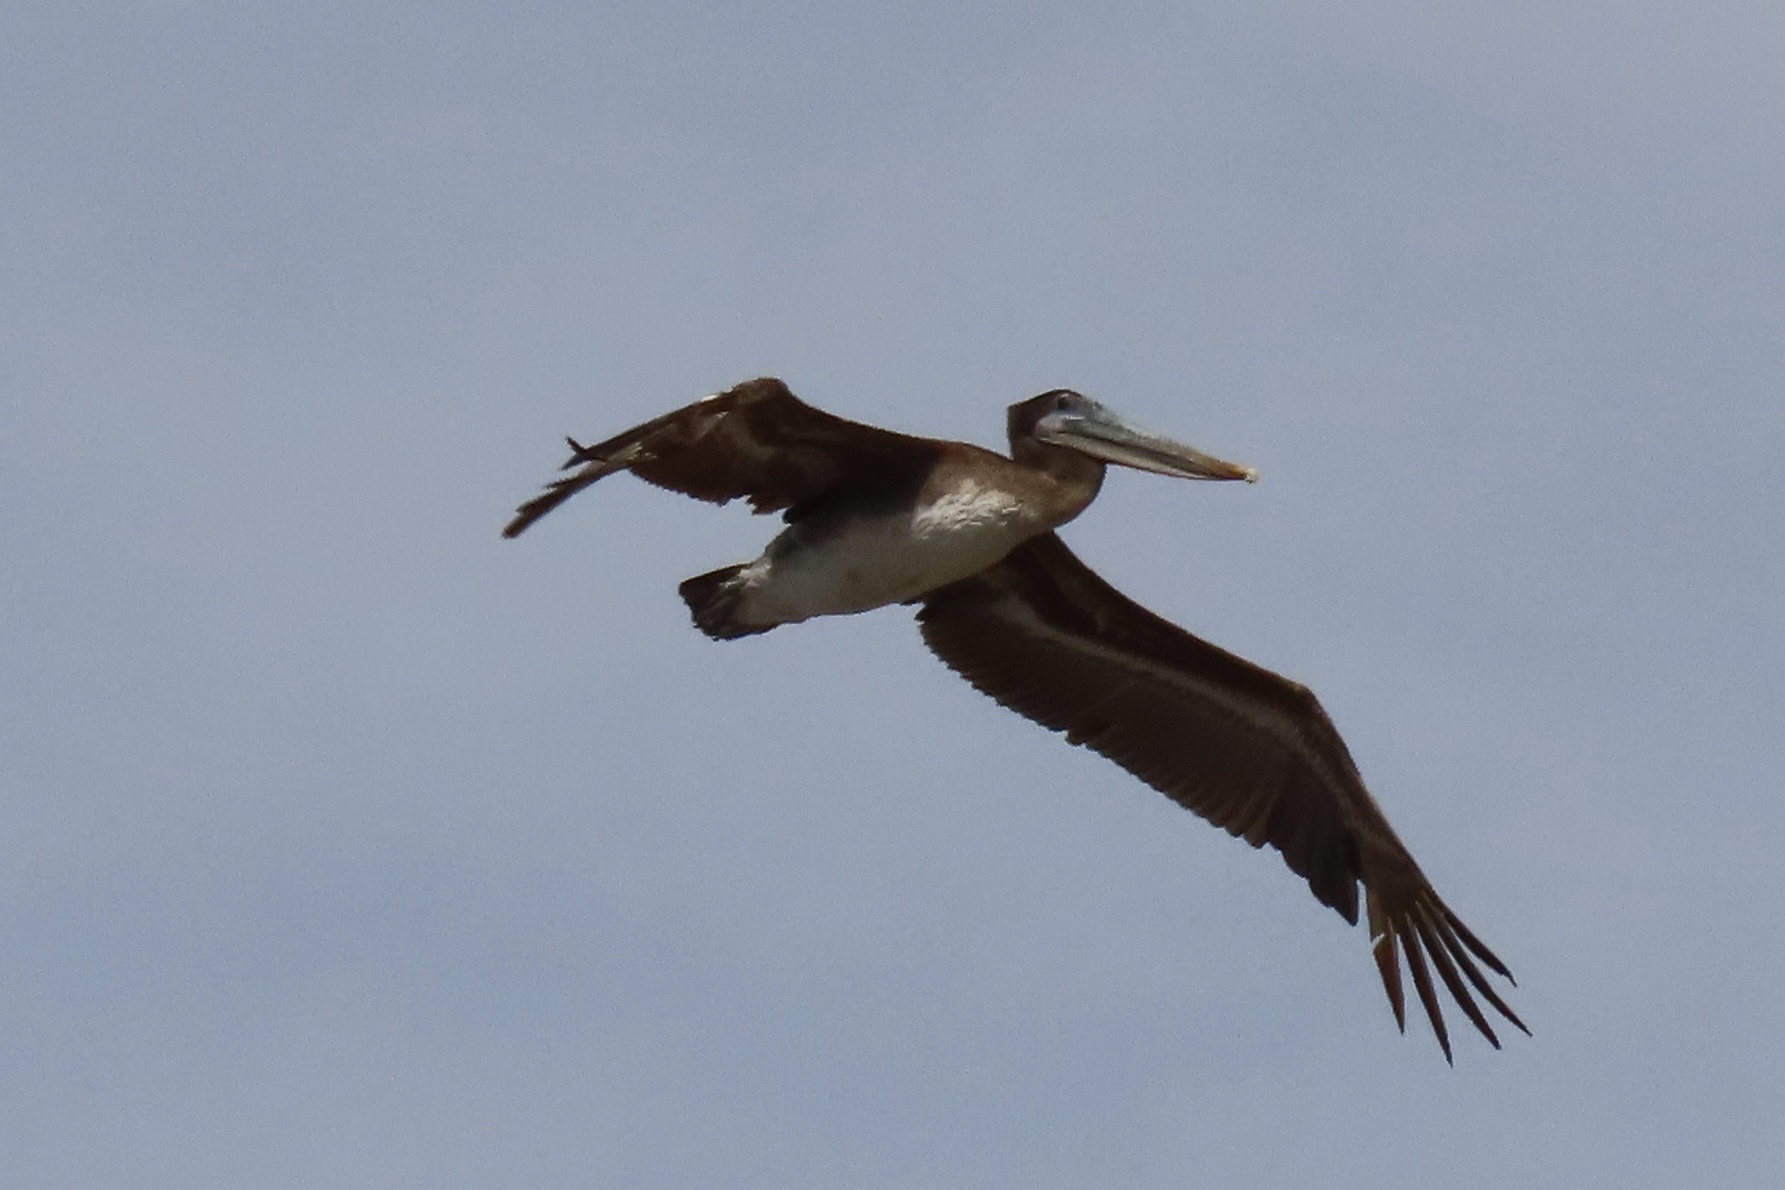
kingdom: Animalia
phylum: Chordata
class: Aves
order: Pelecaniformes
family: Pelecanidae
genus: Pelecanus
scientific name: Pelecanus occidentalis
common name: Brown pelican
